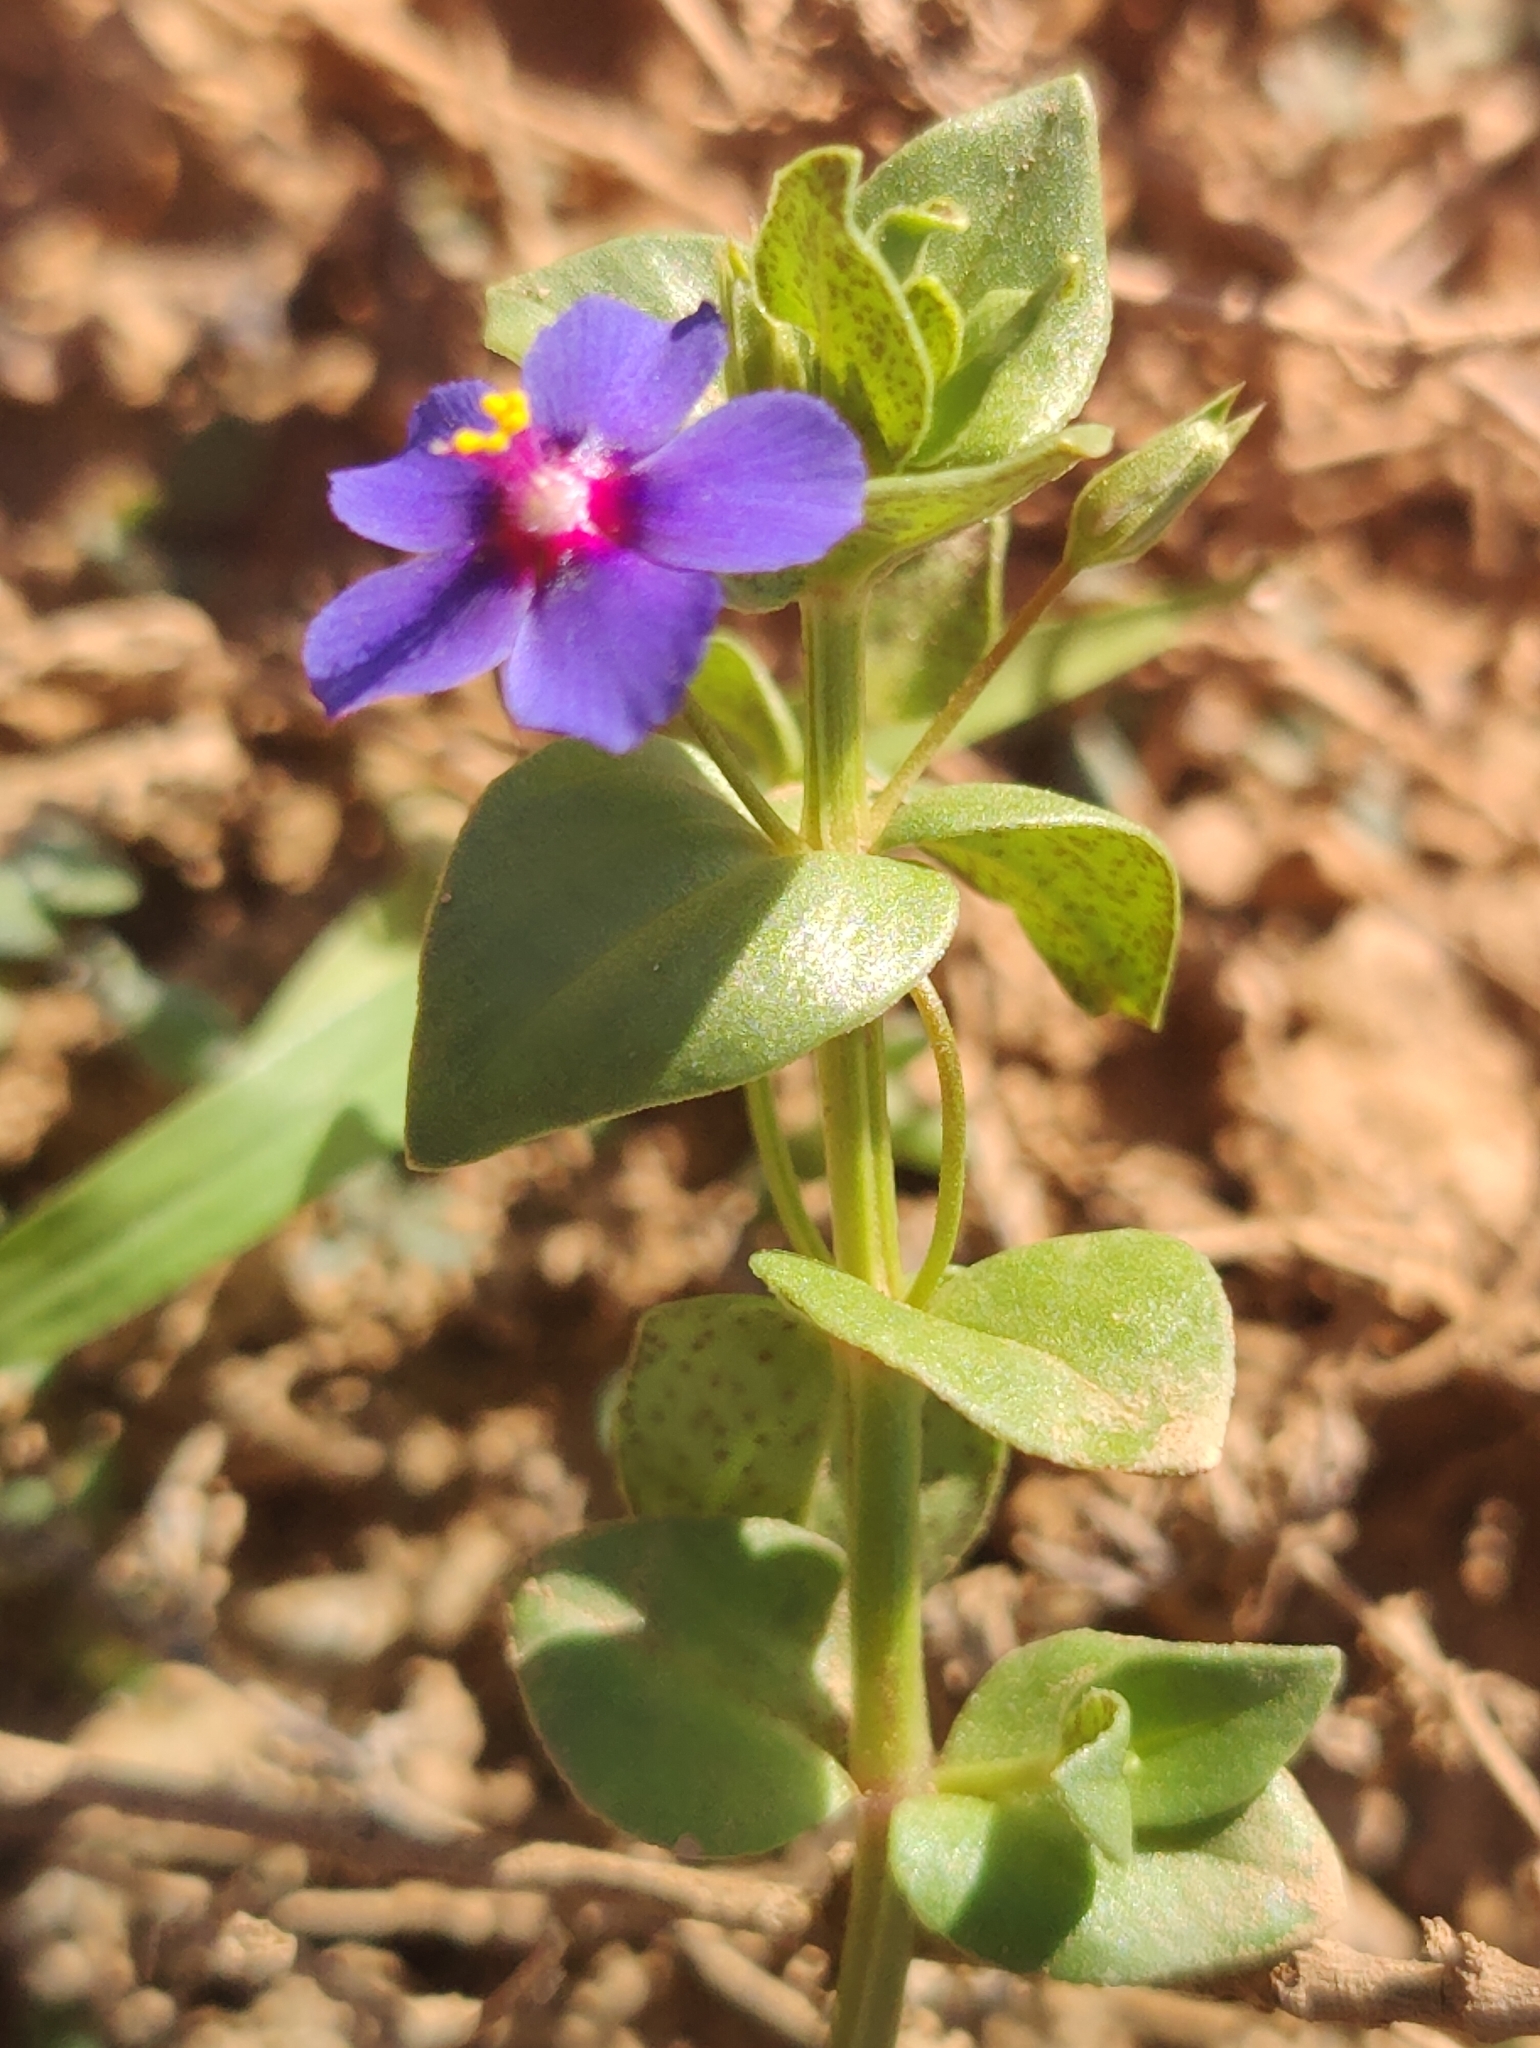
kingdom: Plantae
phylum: Tracheophyta
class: Magnoliopsida
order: Ericales
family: Primulaceae
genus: Lysimachia
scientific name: Lysimachia loeflingii
